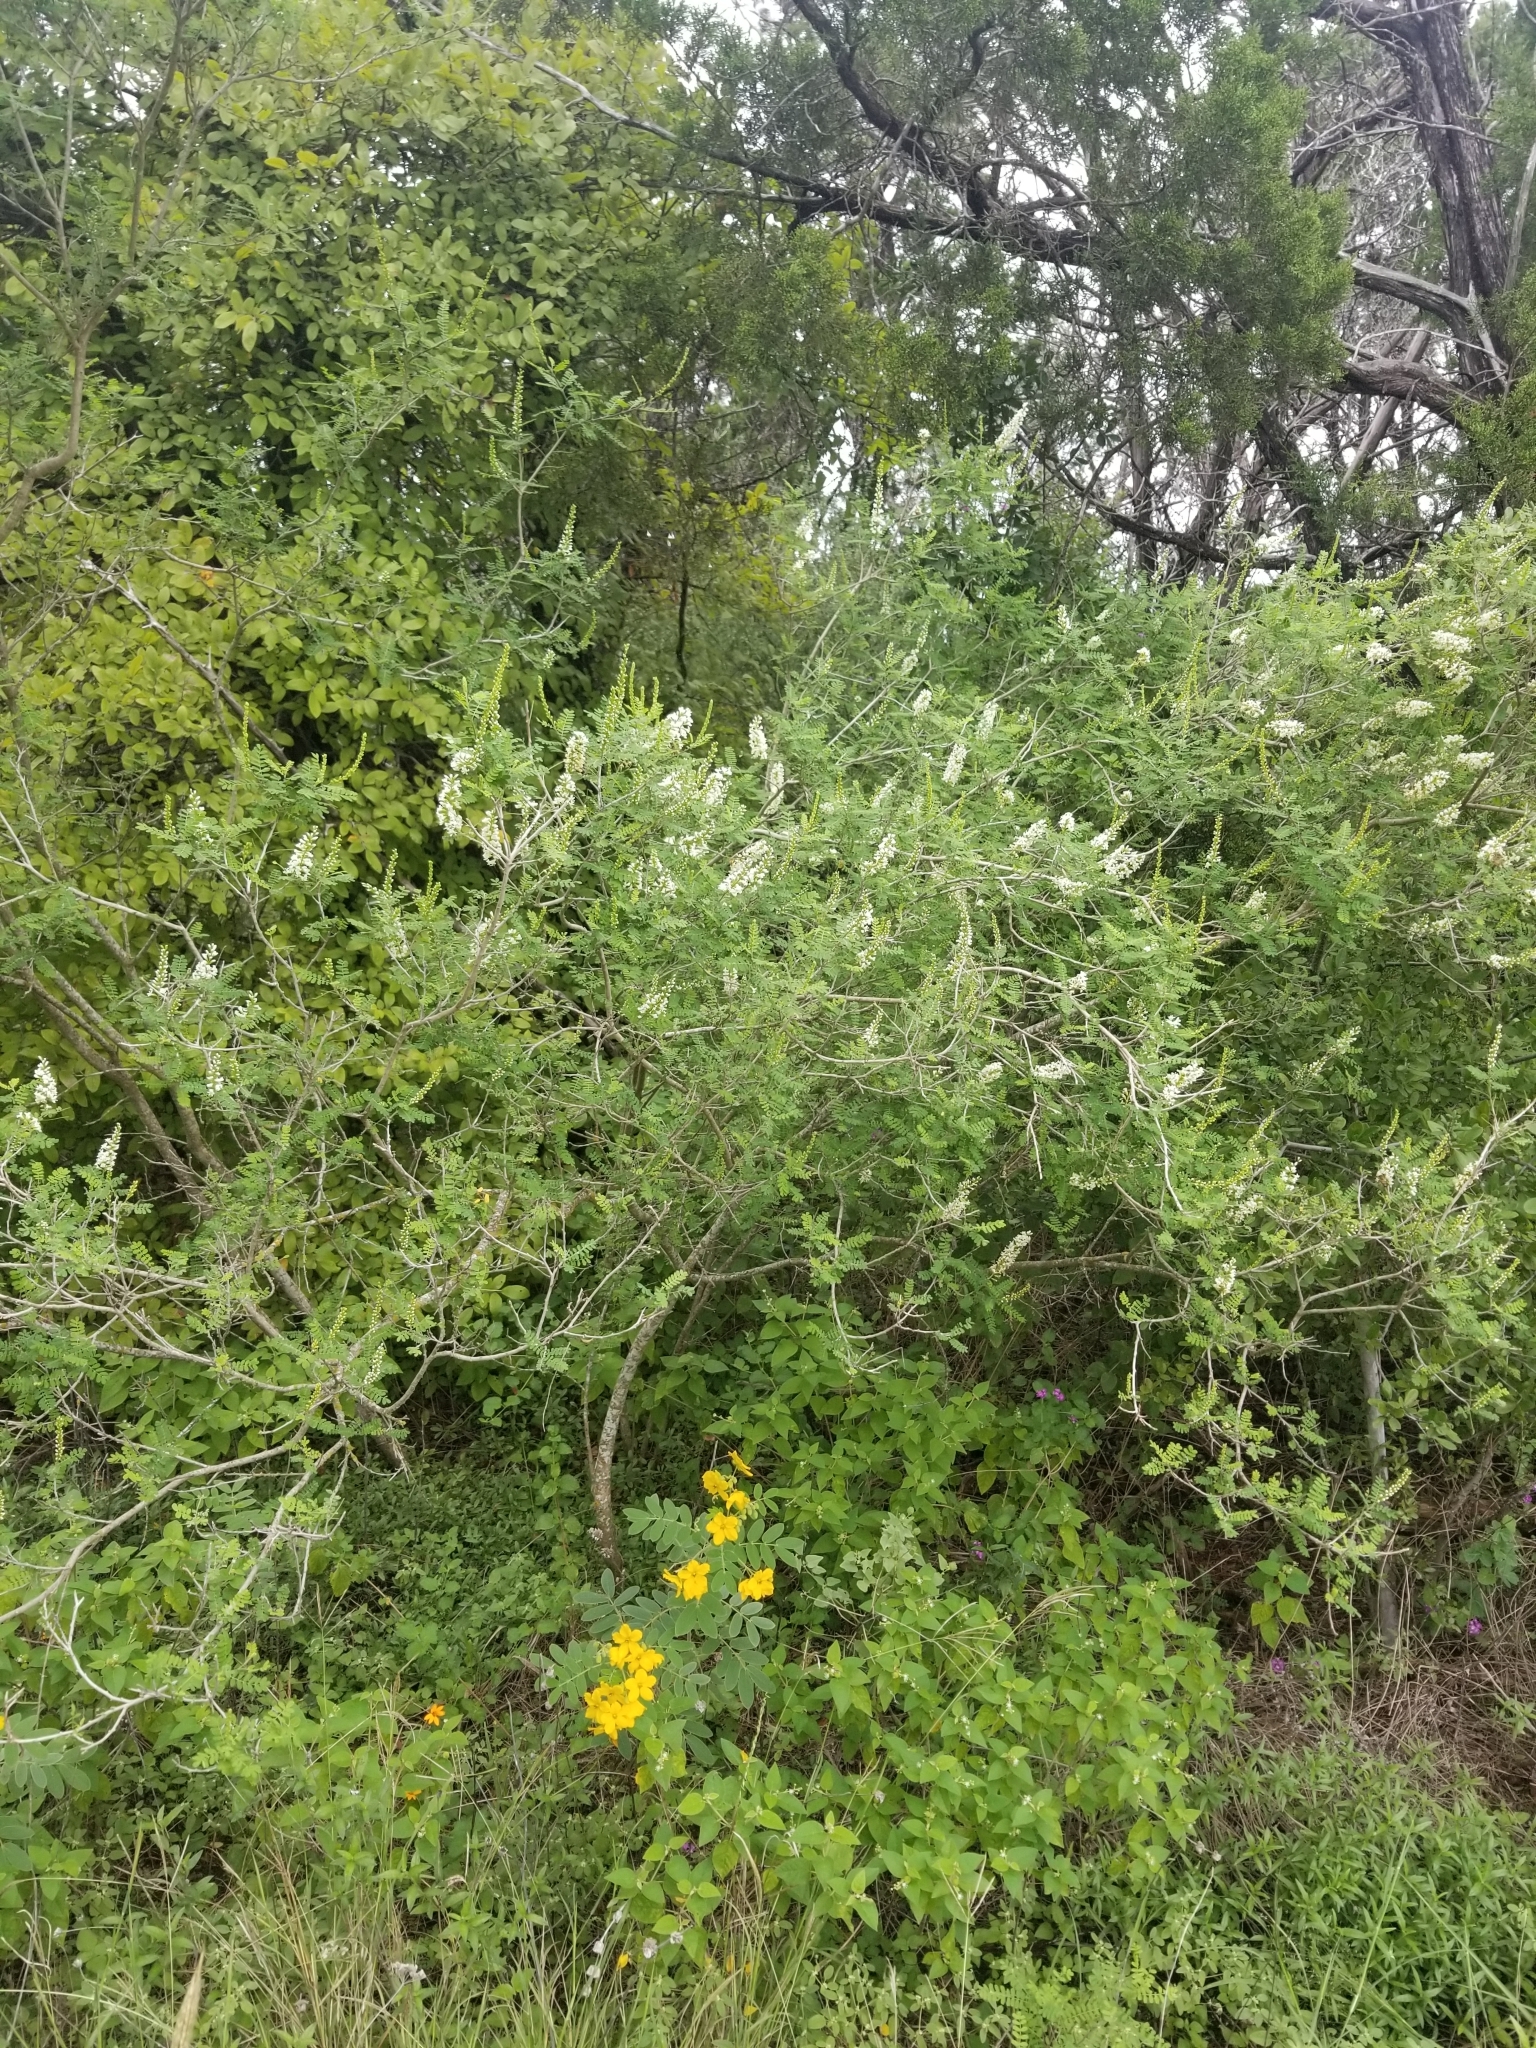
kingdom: Plantae
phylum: Tracheophyta
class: Magnoliopsida
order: Fabales
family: Fabaceae
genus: Eysenhardtia
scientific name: Eysenhardtia texana
